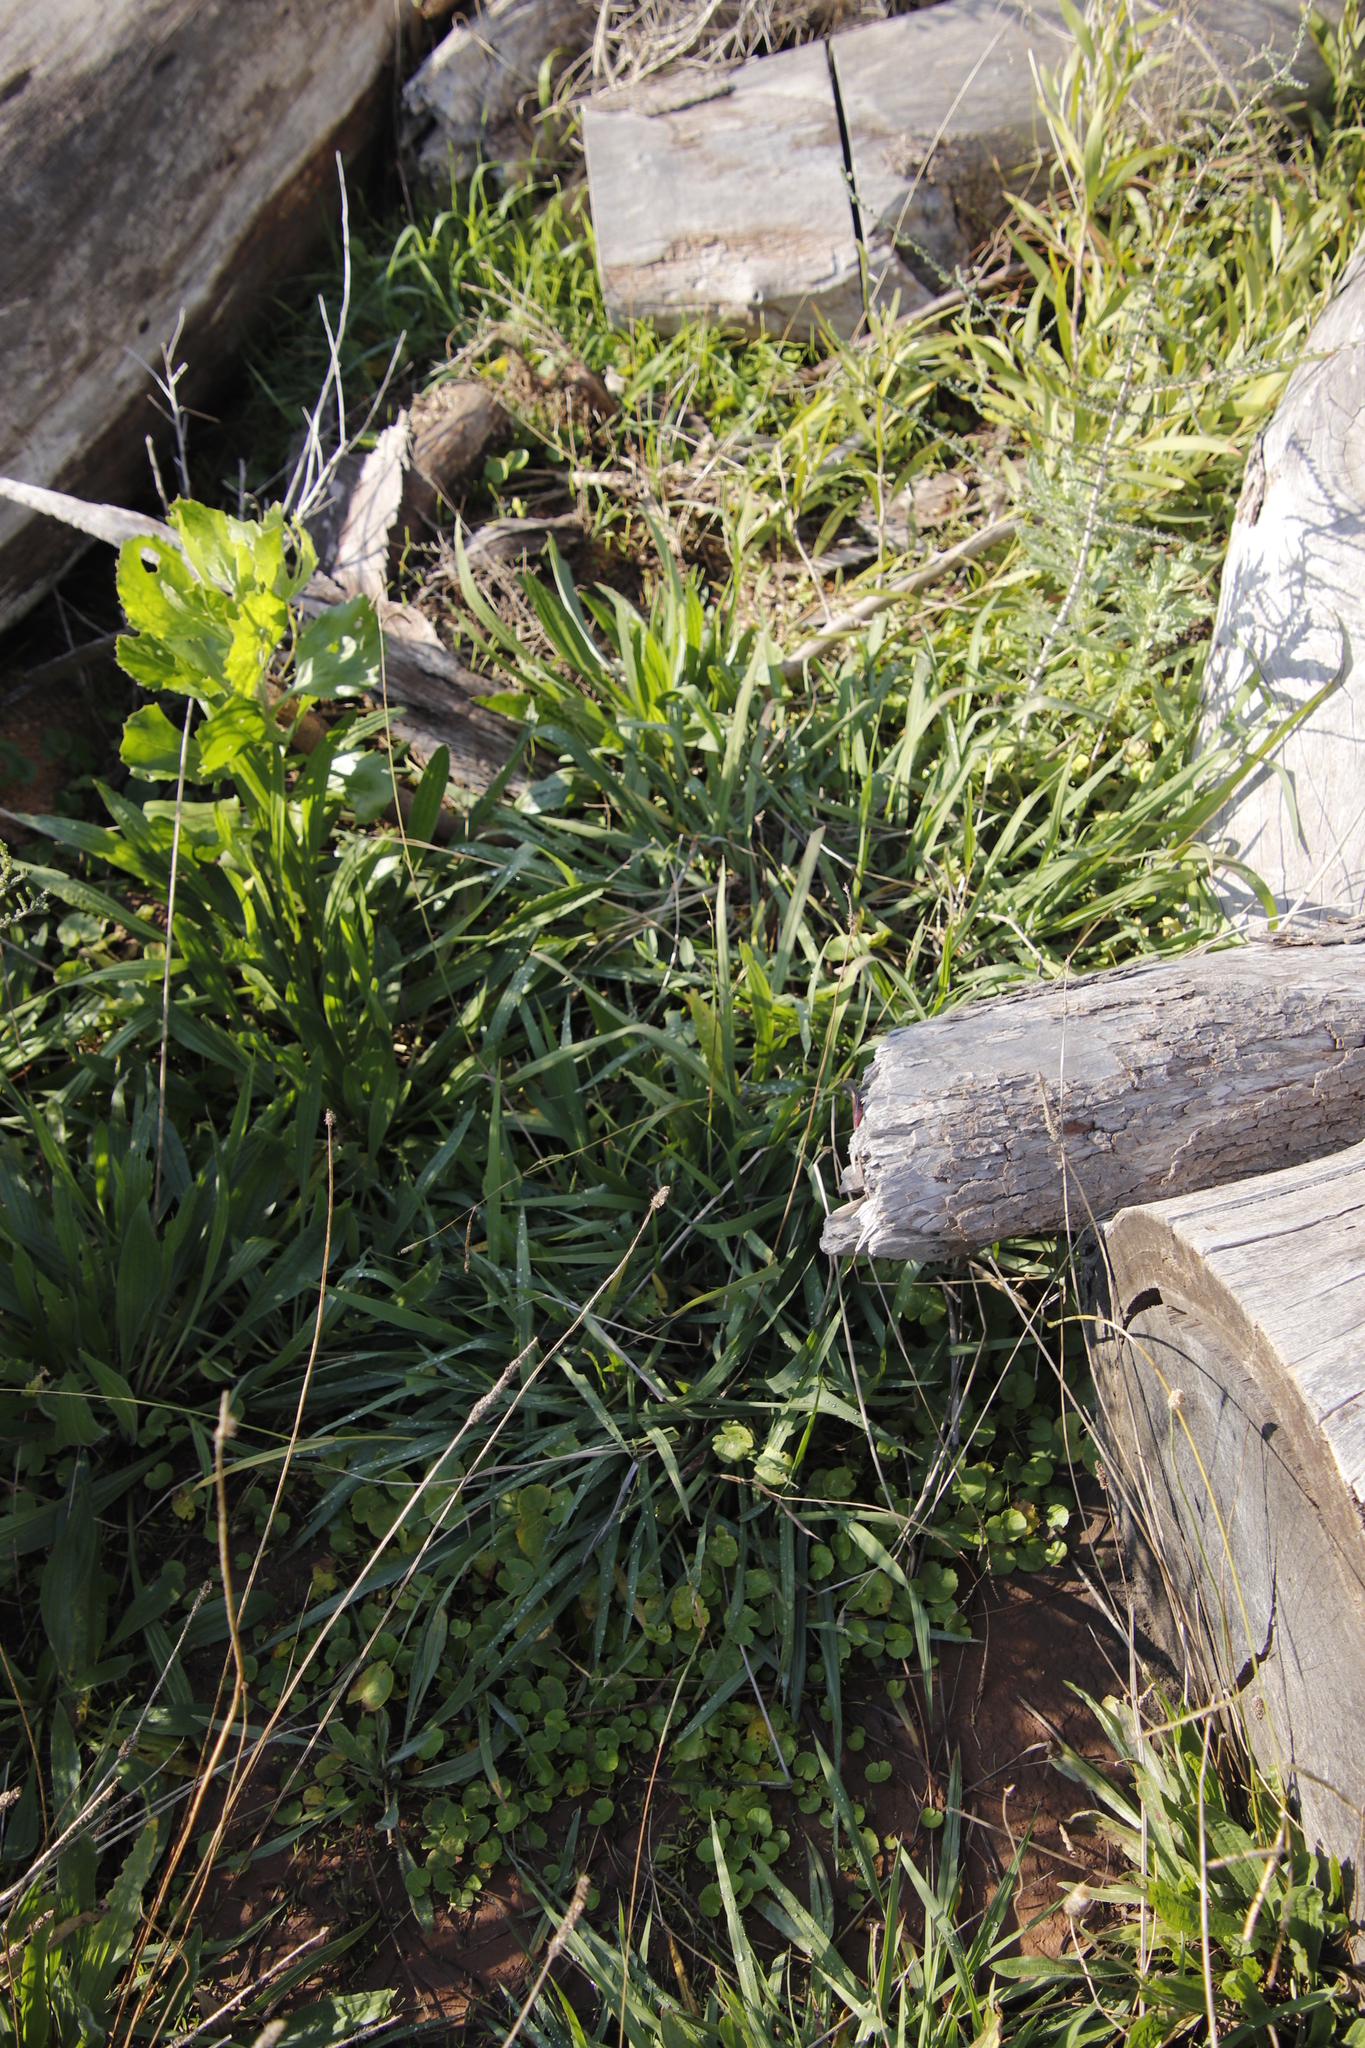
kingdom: Plantae
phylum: Tracheophyta
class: Magnoliopsida
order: Lamiales
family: Plantaginaceae
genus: Plantago
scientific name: Plantago lanceolata
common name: Ribwort plantain
